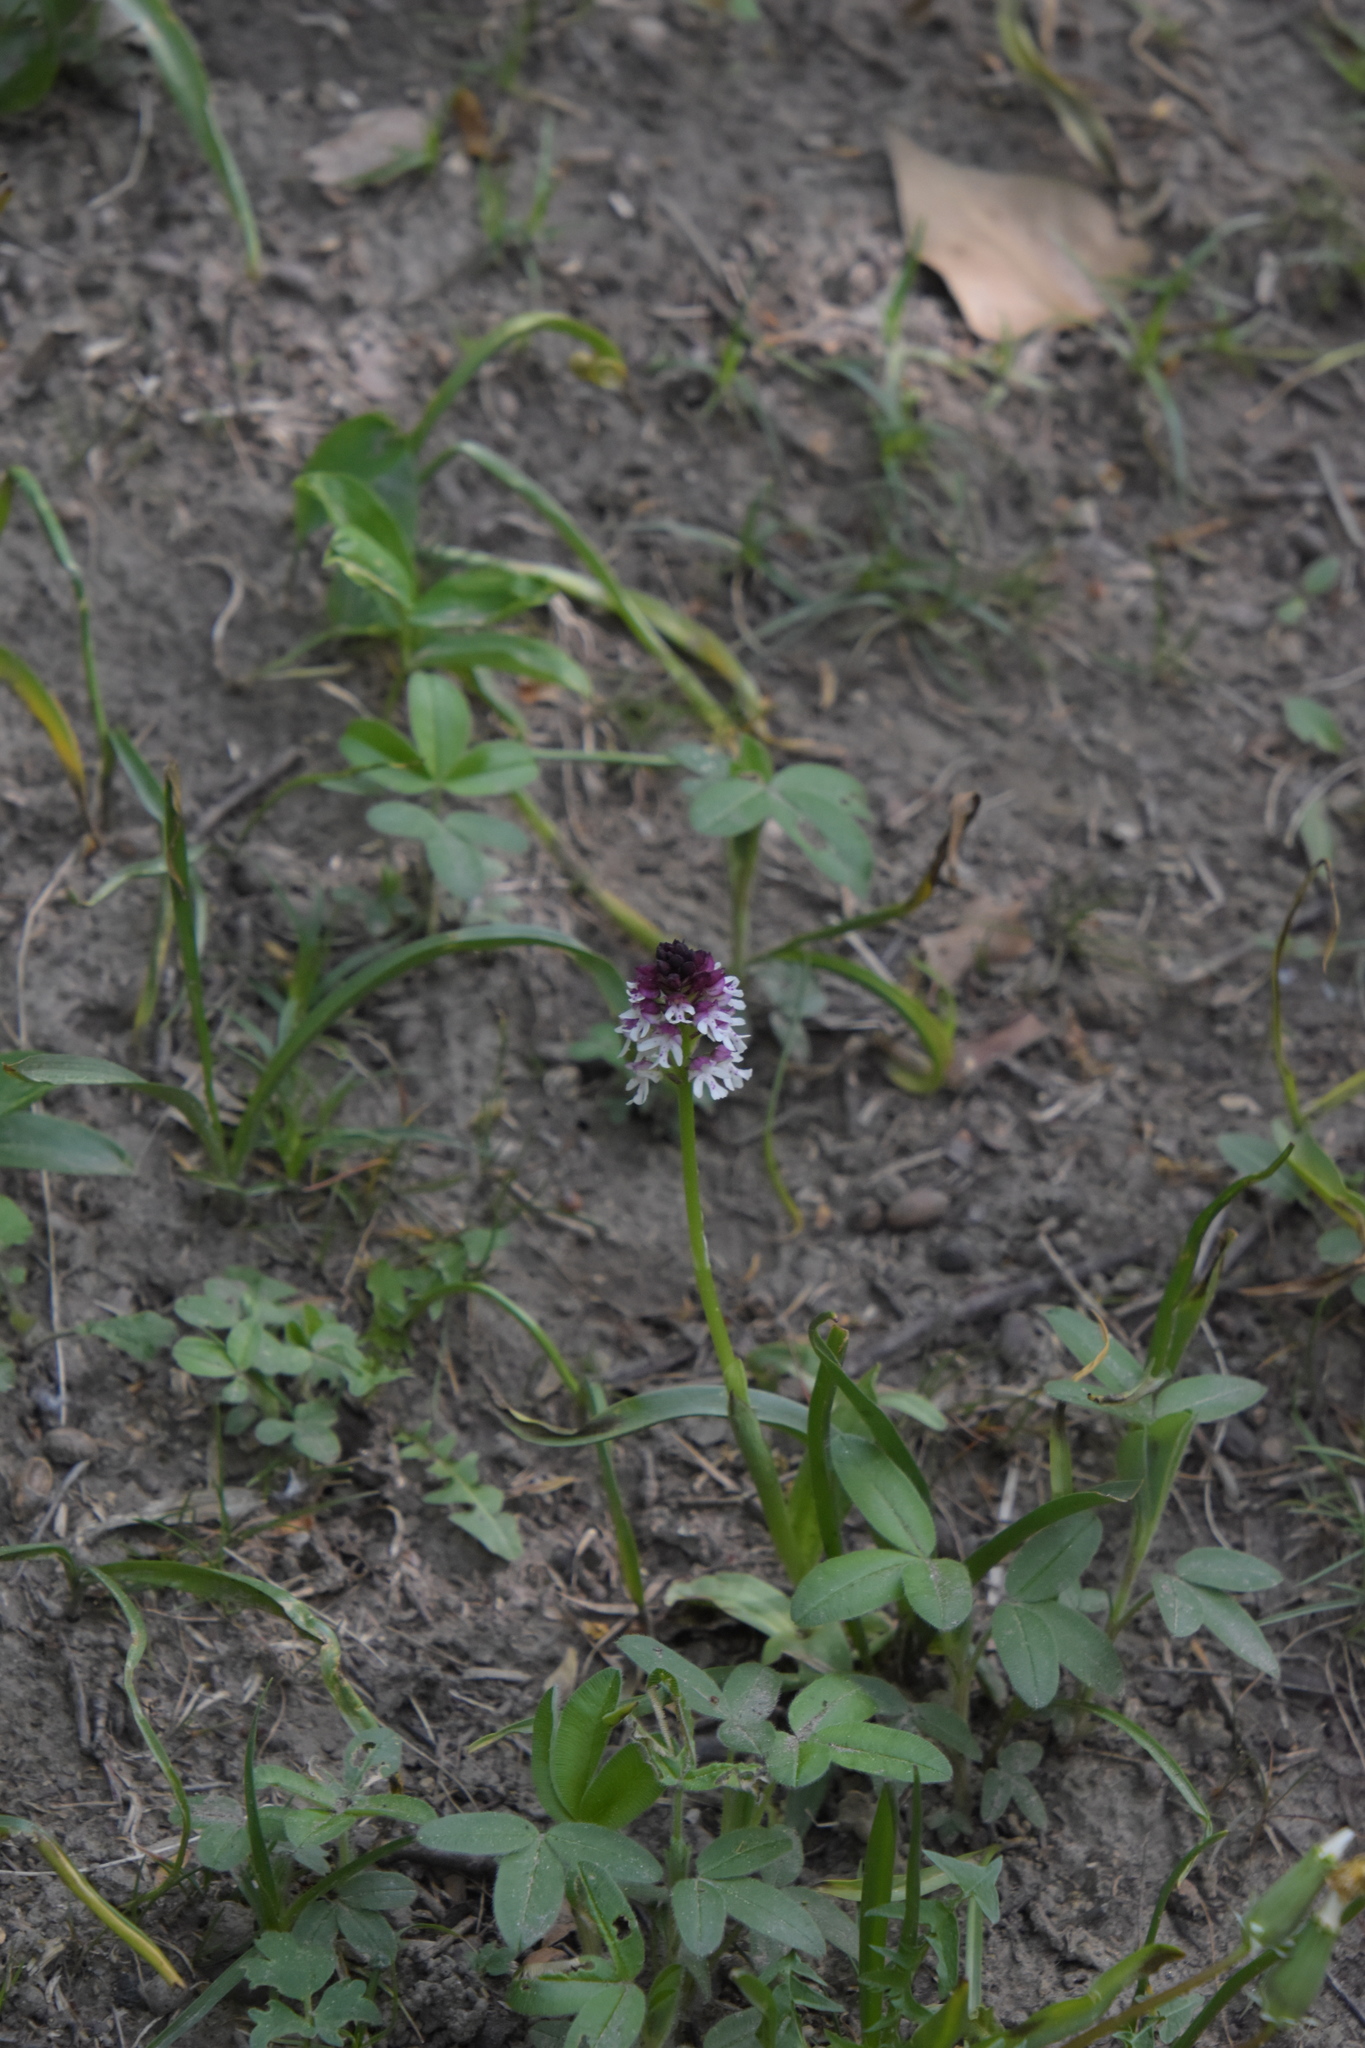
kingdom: Plantae
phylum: Tracheophyta
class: Liliopsida
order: Asparagales
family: Orchidaceae
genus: Neotinea
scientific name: Neotinea ustulata
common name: Burnt orchid
